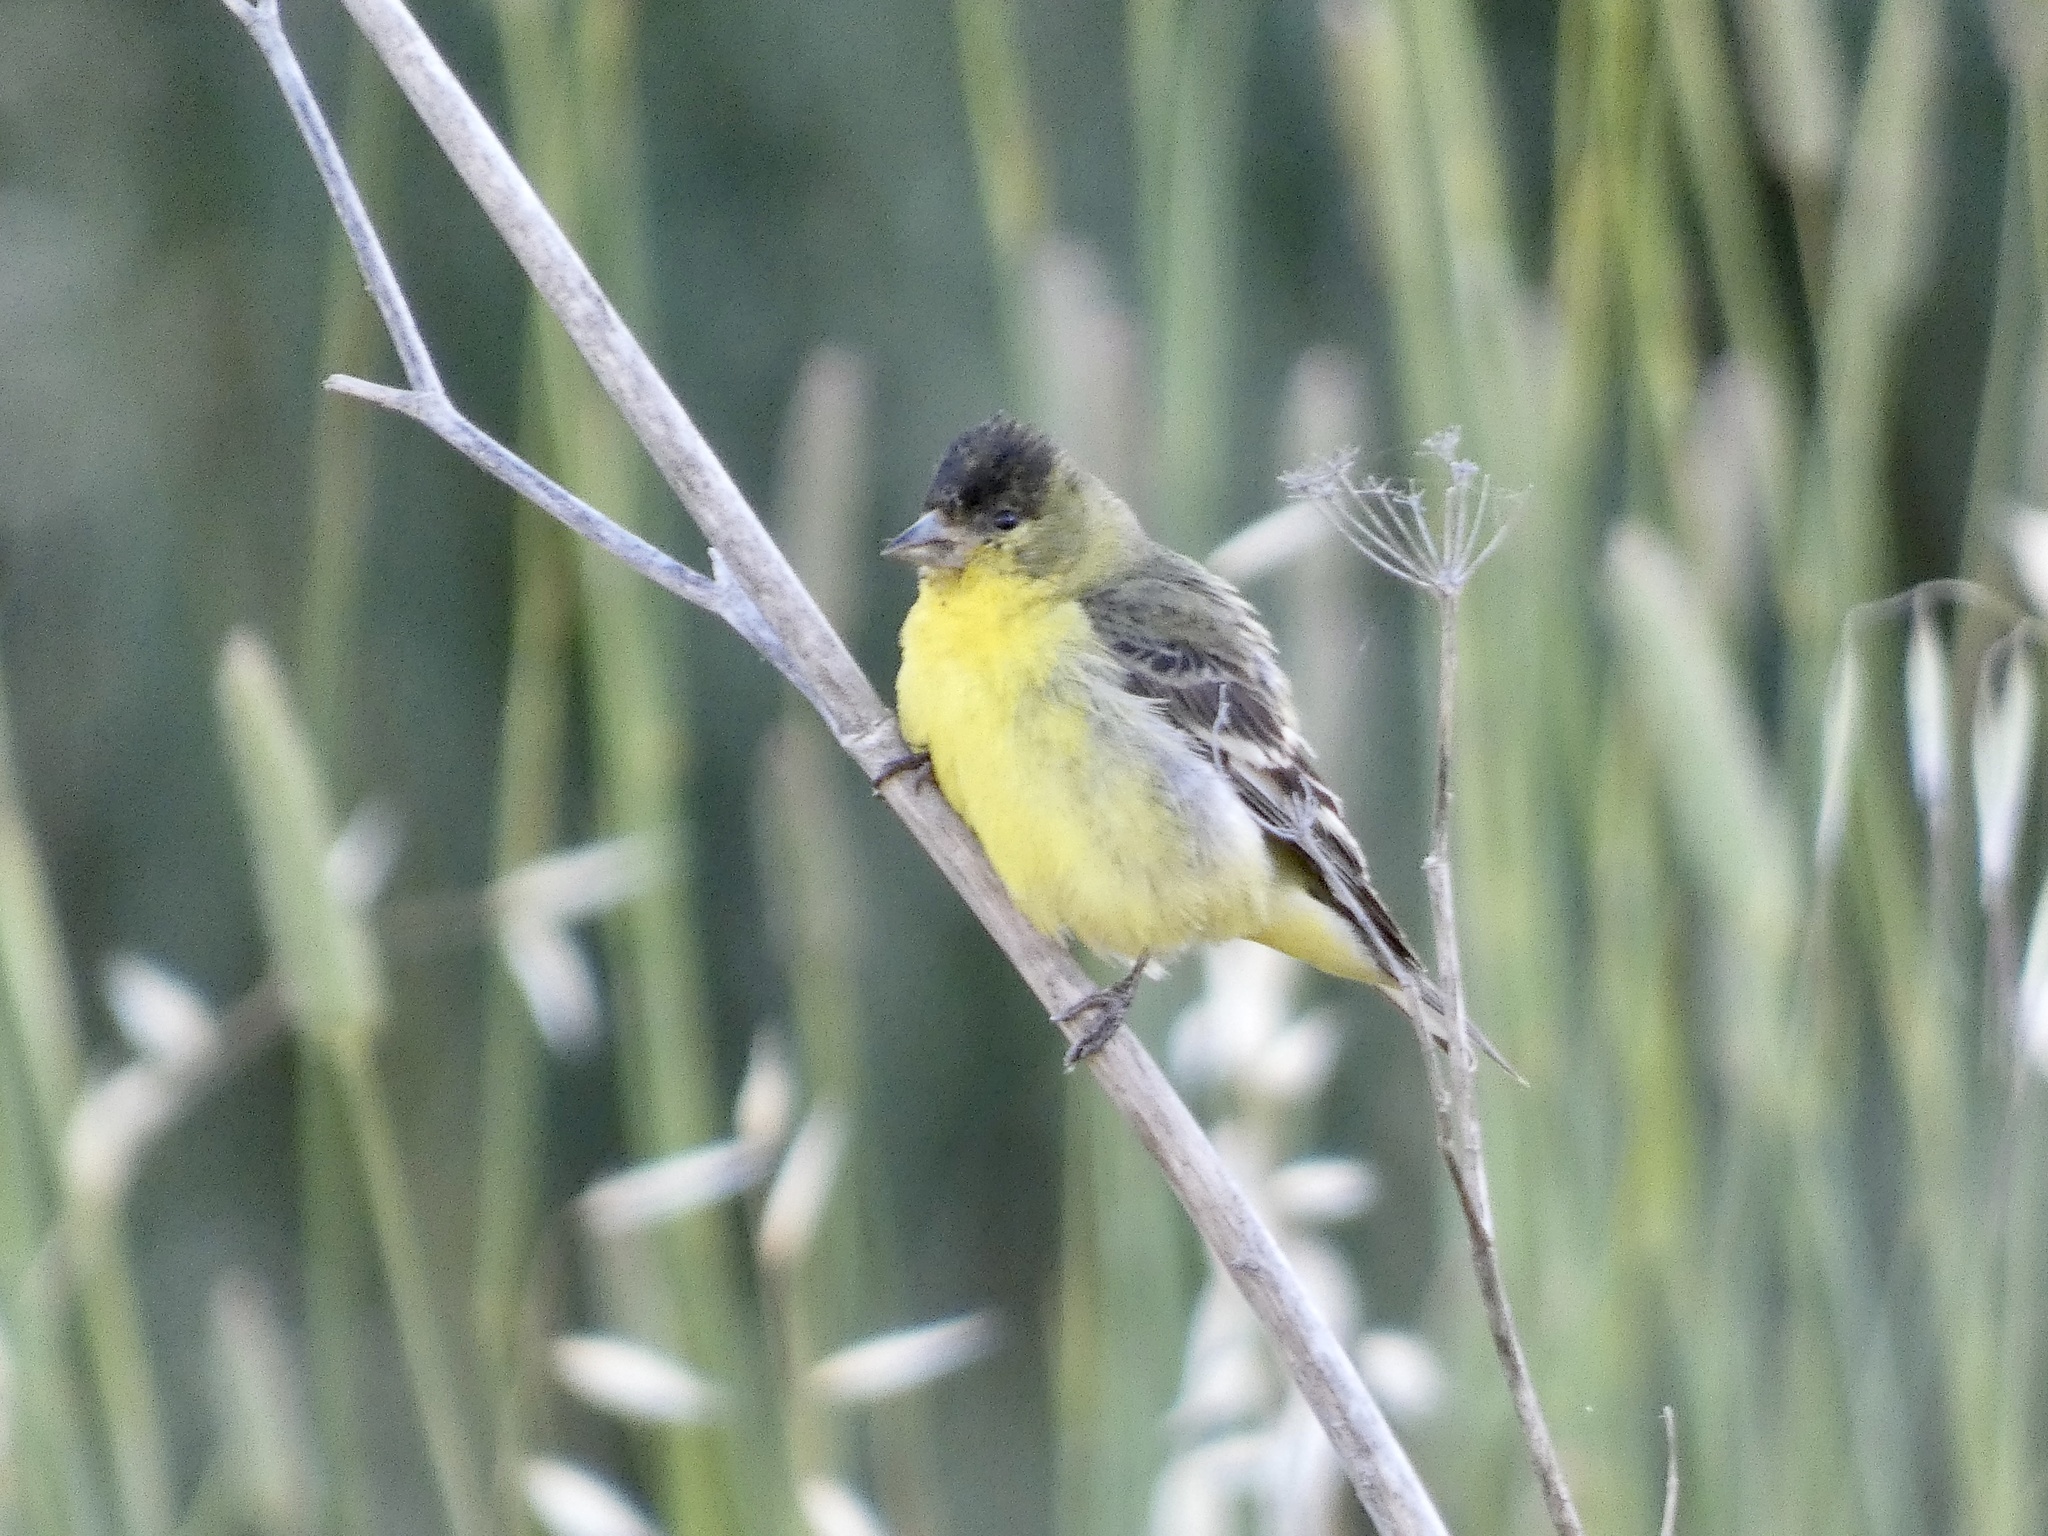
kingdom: Animalia
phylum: Chordata
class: Aves
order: Passeriformes
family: Fringillidae
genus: Spinus
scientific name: Spinus psaltria
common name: Lesser goldfinch
